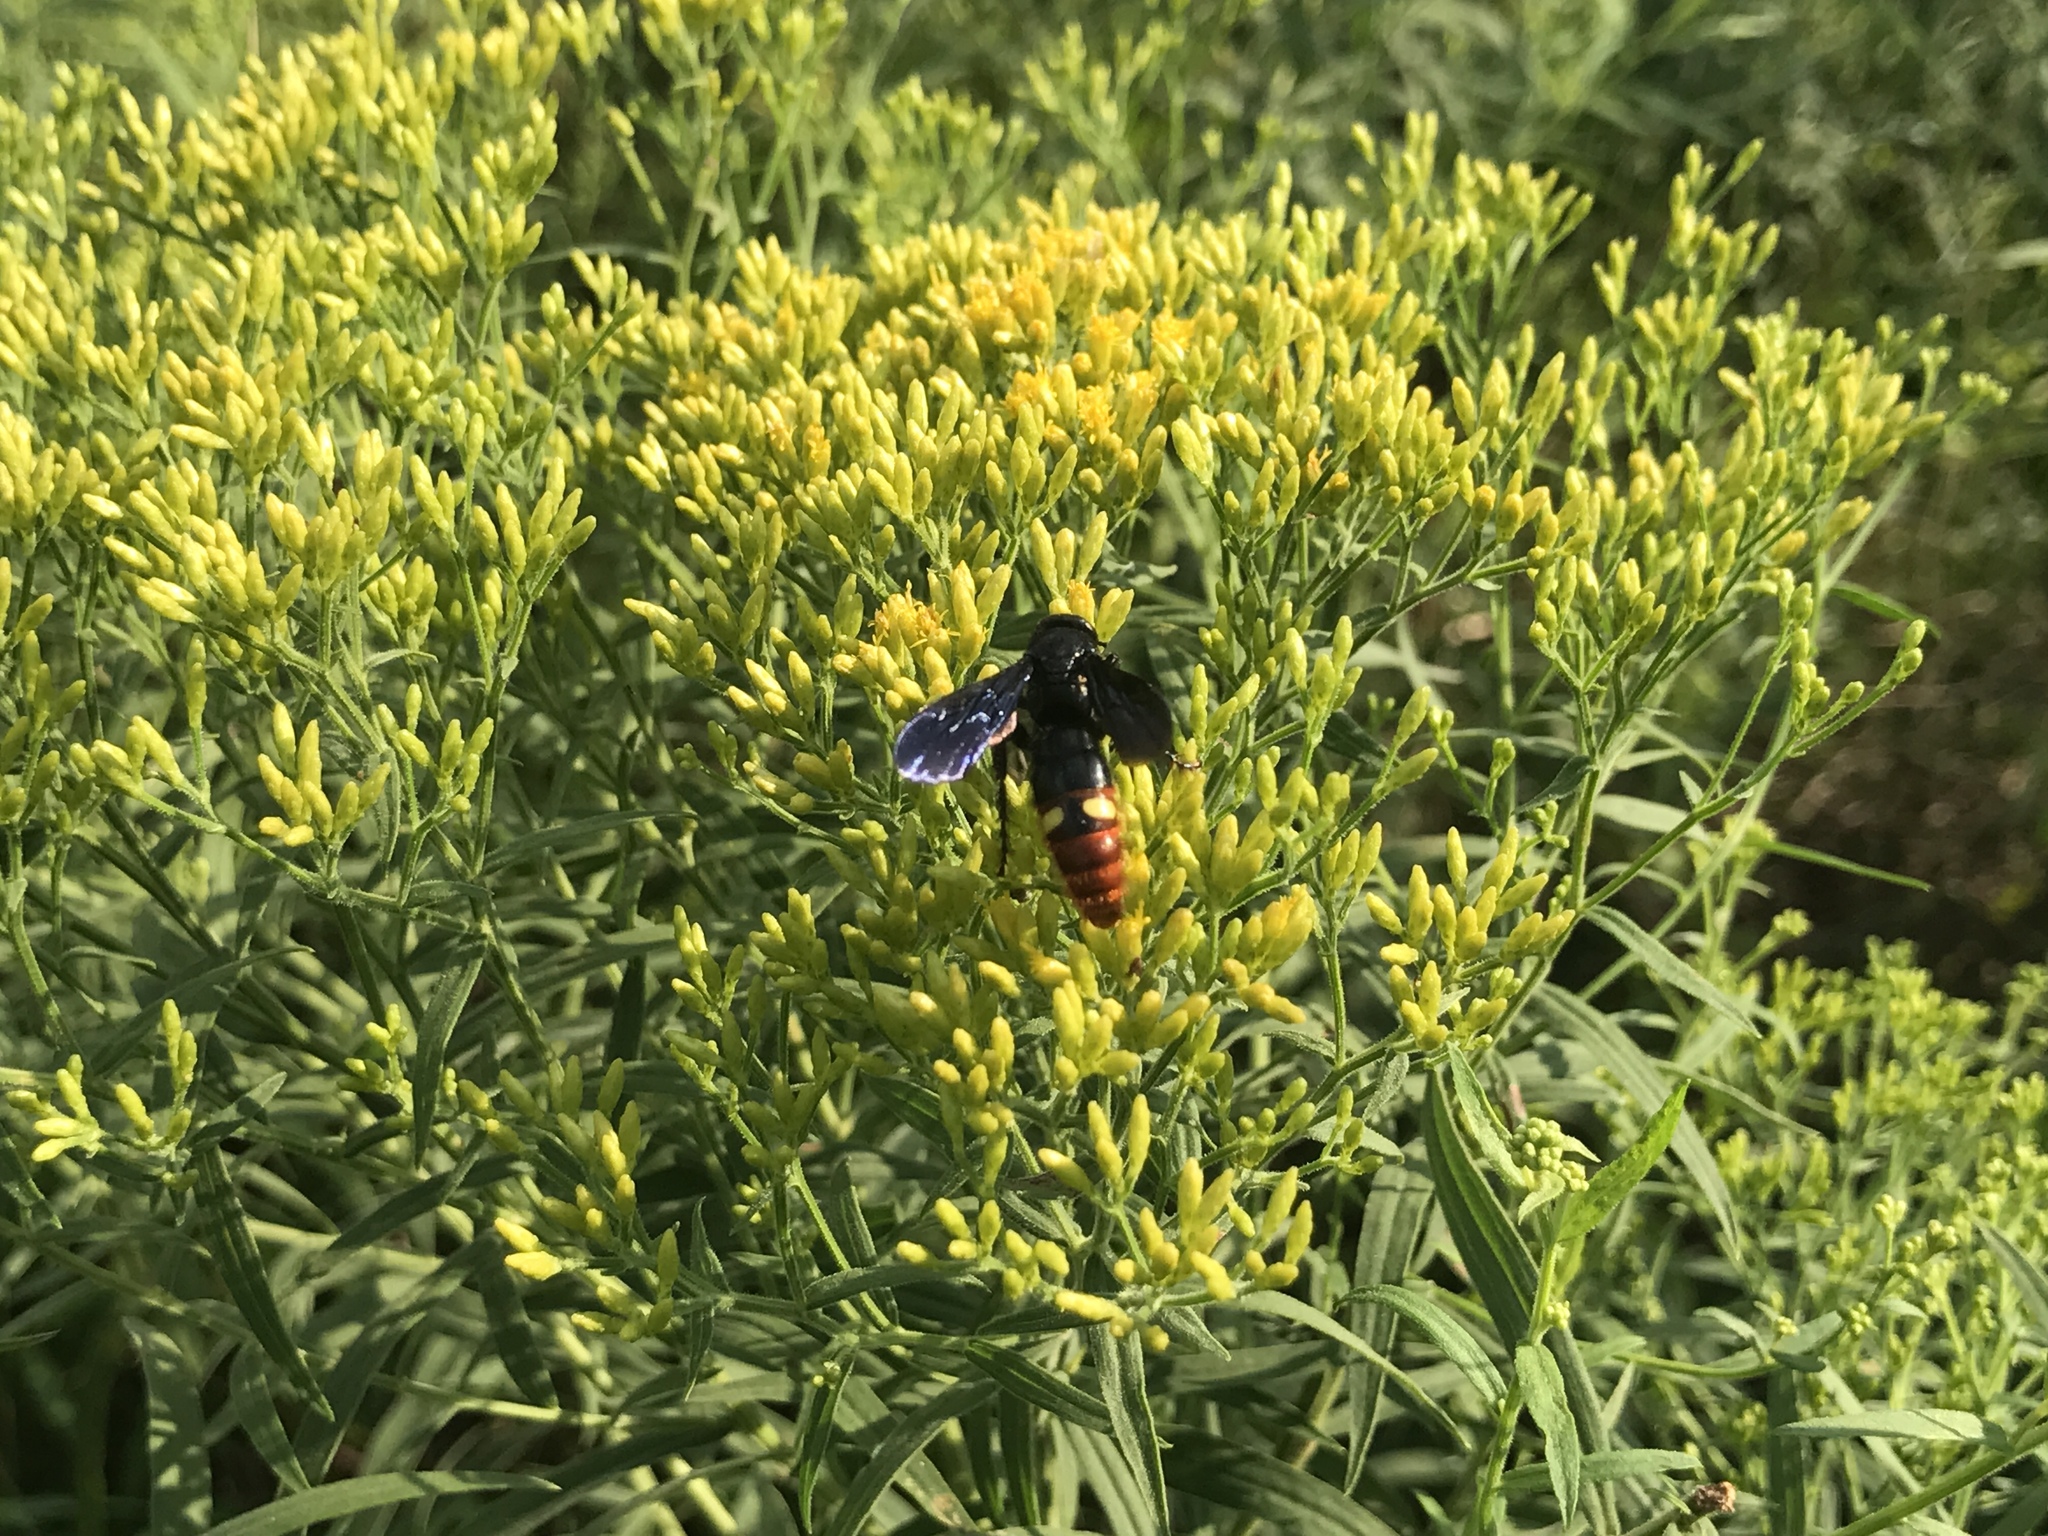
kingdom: Animalia
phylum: Arthropoda
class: Insecta
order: Hymenoptera
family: Scoliidae
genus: Scolia
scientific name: Scolia dubia
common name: Blue-winged scoliid wasp
